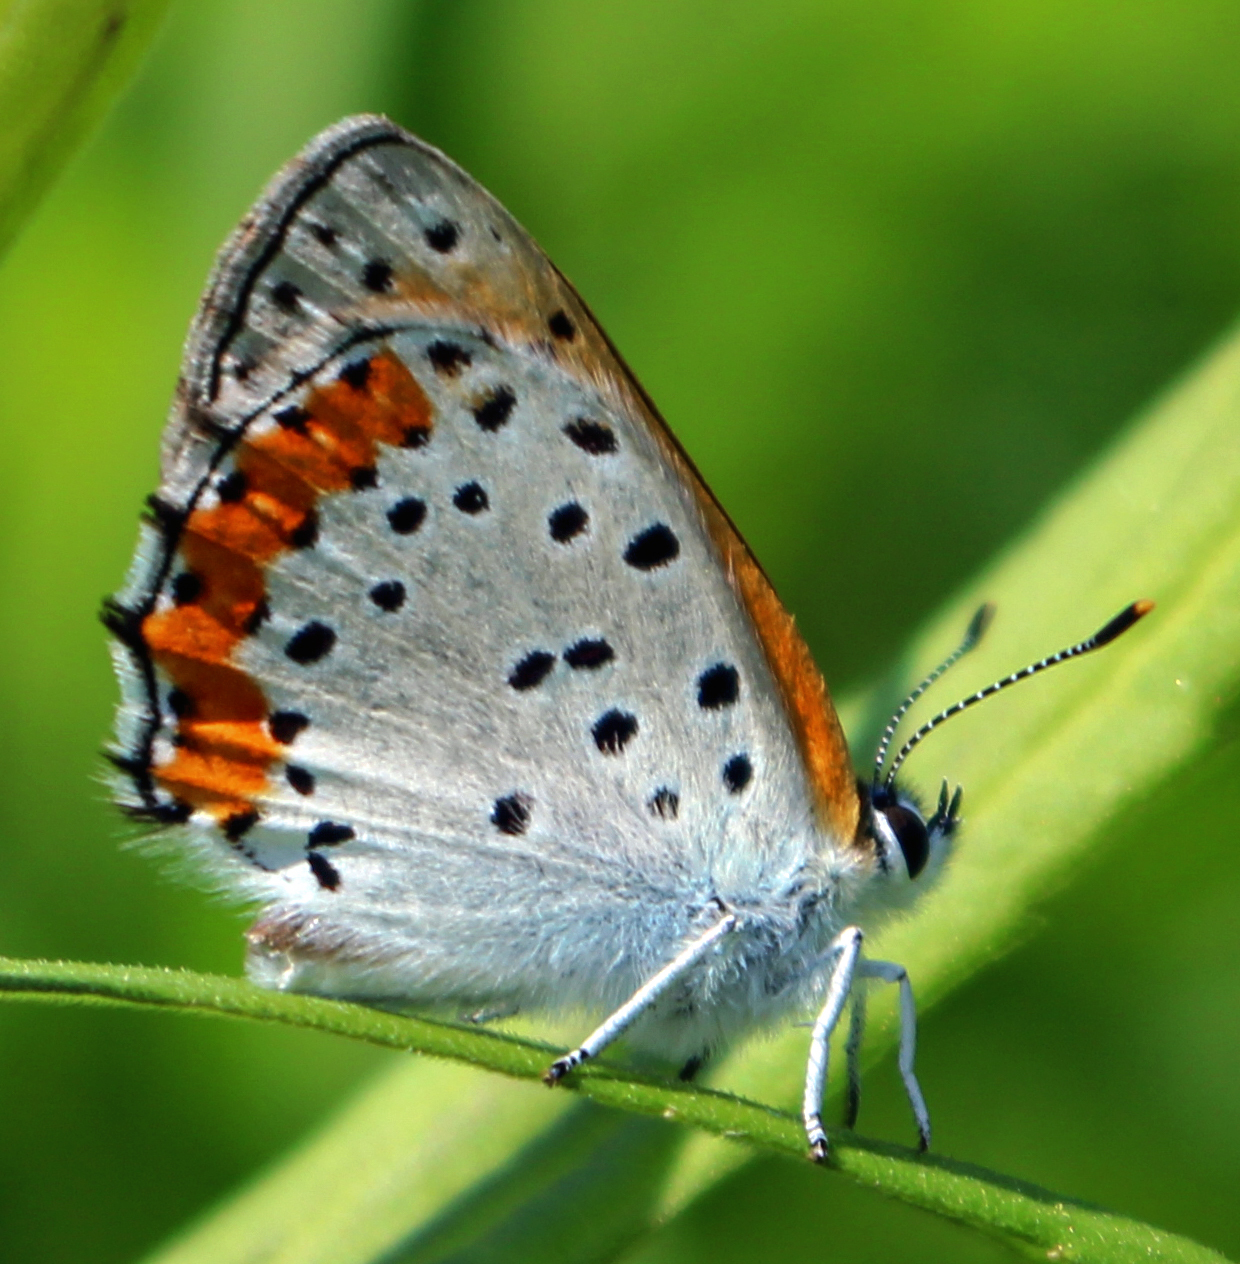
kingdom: Animalia
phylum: Arthropoda
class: Insecta
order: Lepidoptera
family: Lycaenidae
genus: Tharsalea
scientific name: Tharsalea hyllus
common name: Bronze copper
